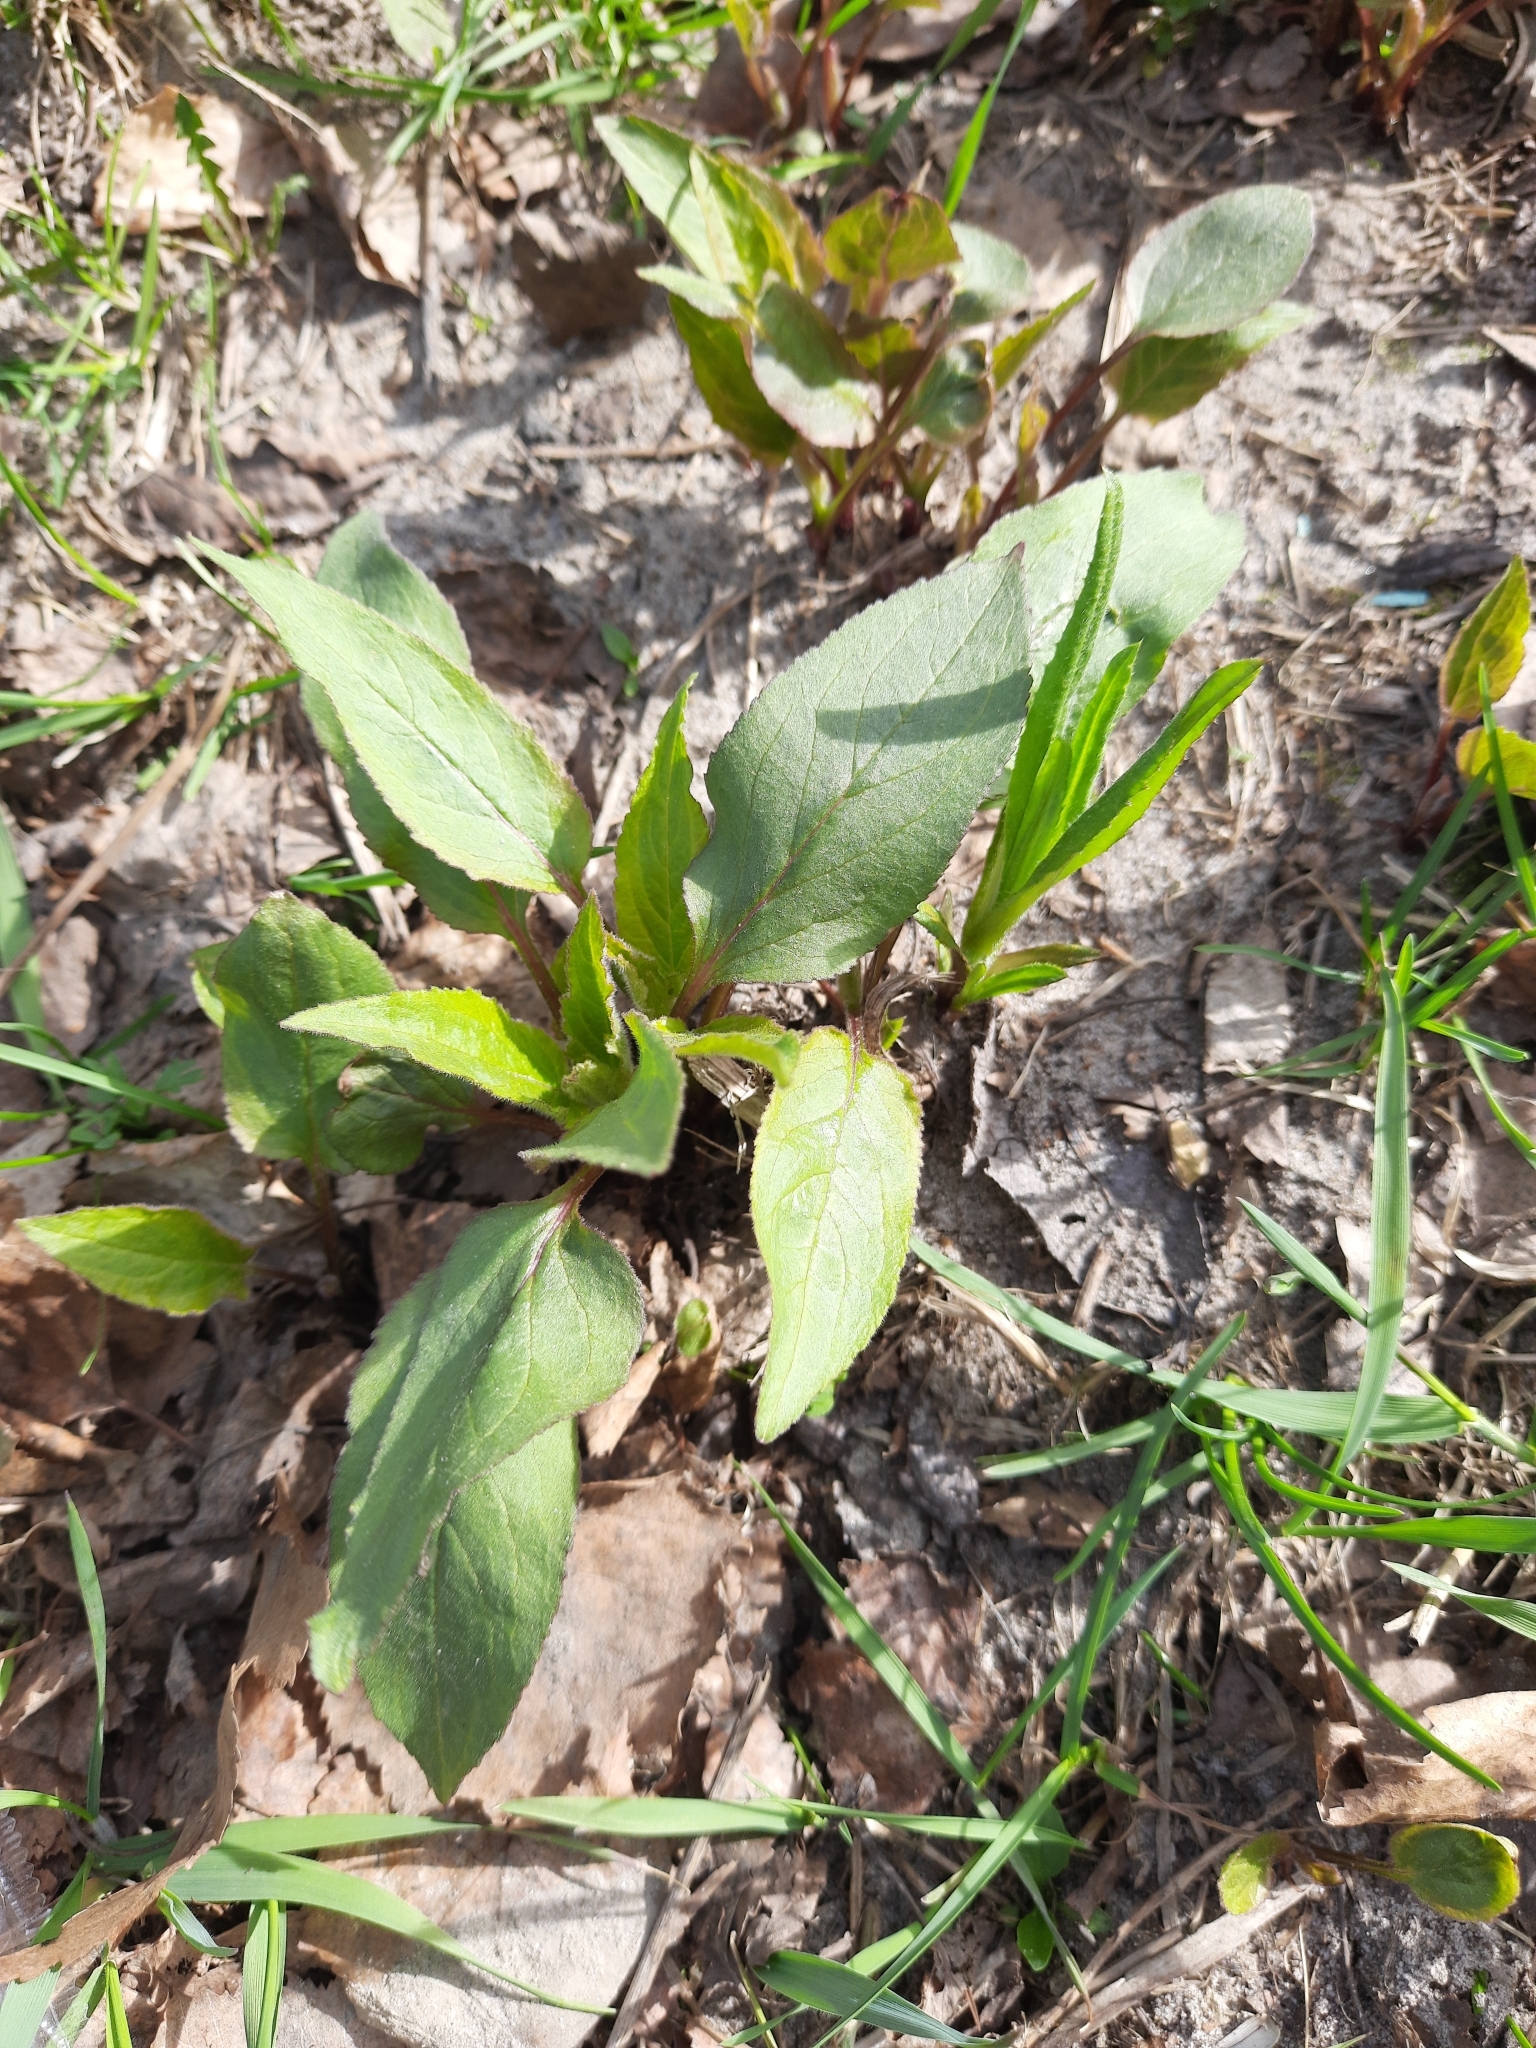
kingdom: Plantae
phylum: Tracheophyta
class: Magnoliopsida
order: Asterales
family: Asteraceae
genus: Solidago
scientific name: Solidago virgaurea
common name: Goldenrod
